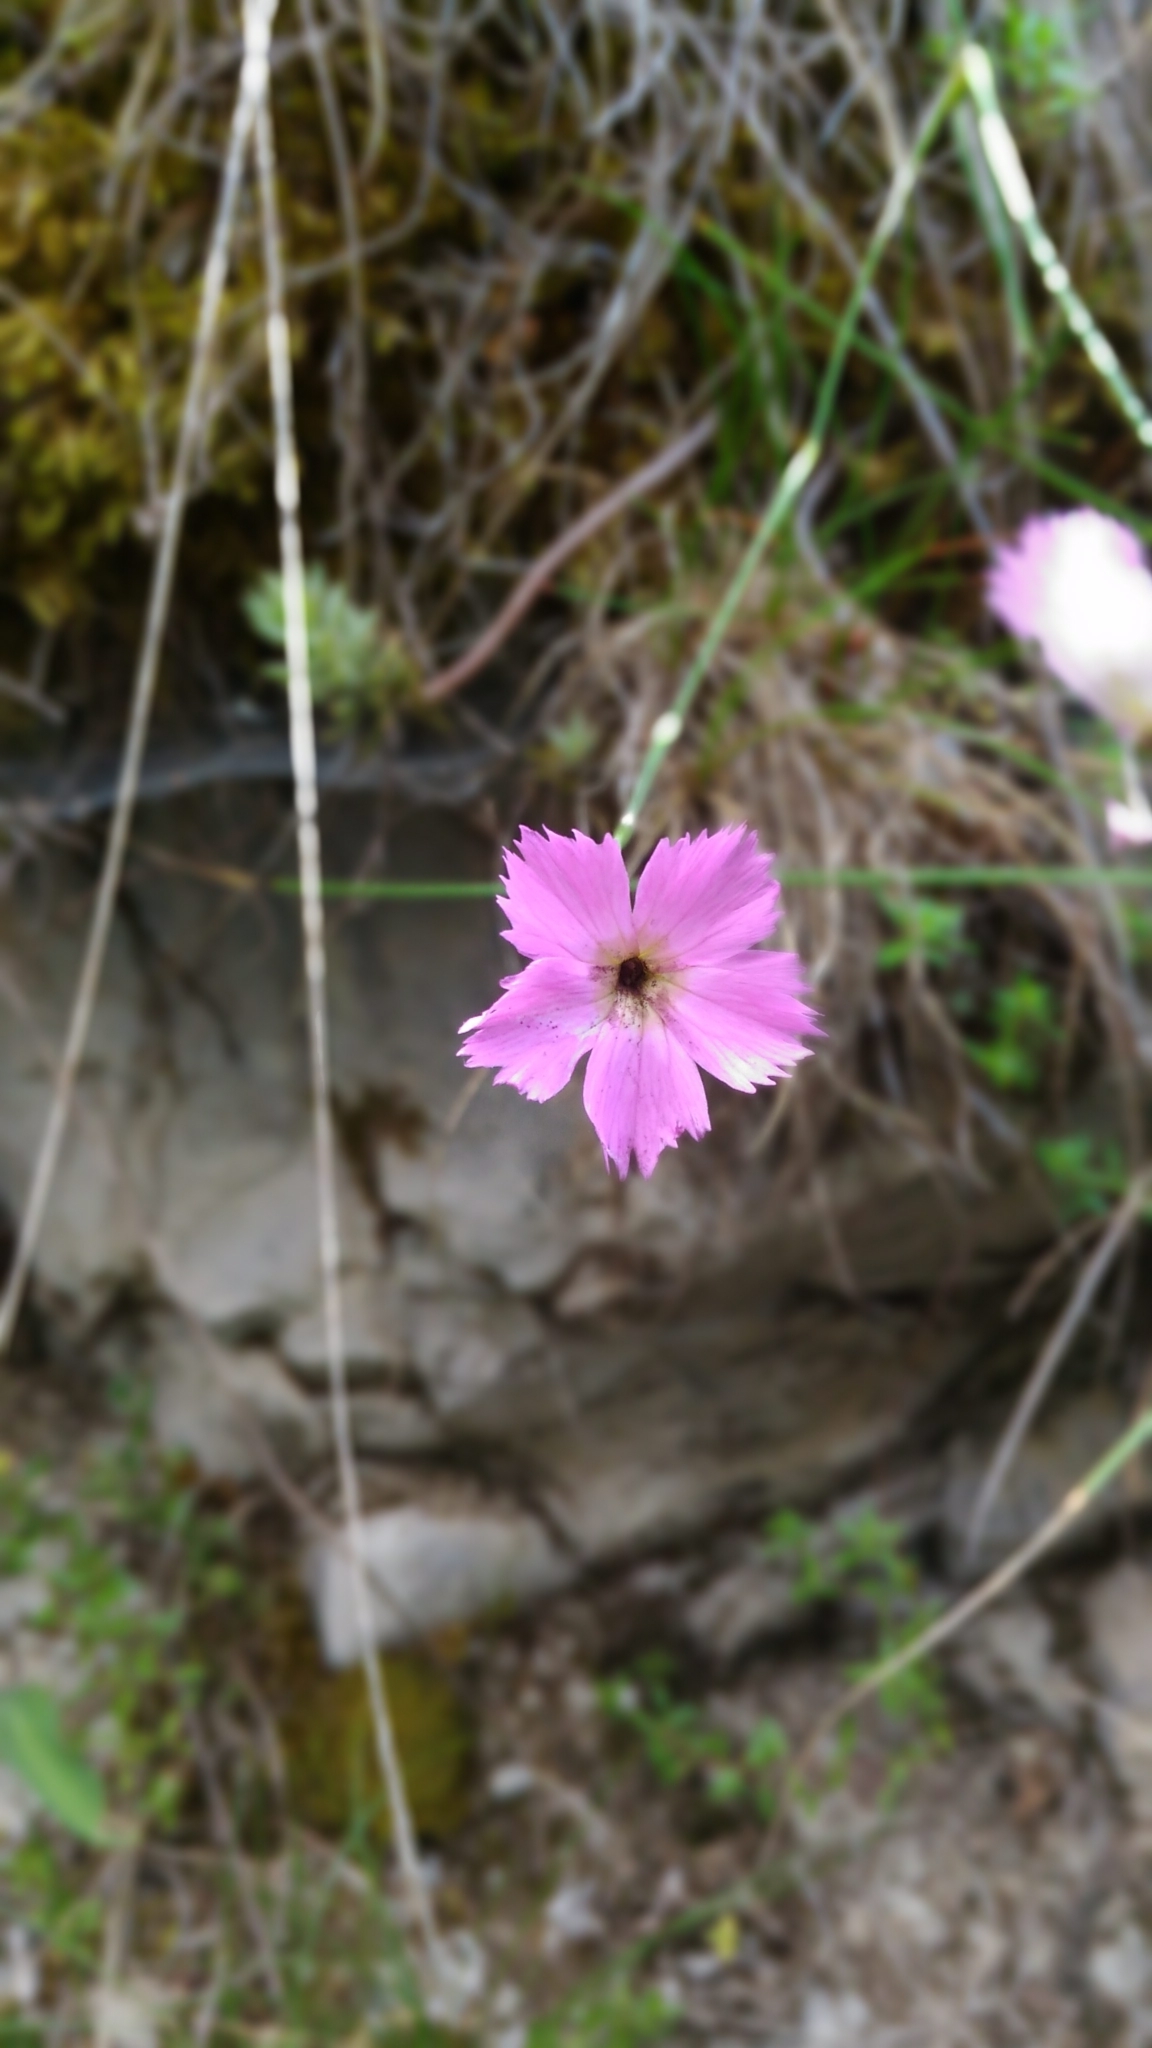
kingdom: Plantae
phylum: Tracheophyta
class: Magnoliopsida
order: Caryophyllales
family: Caryophyllaceae
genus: Dianthus
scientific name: Dianthus sylvestris
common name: Wood pink
